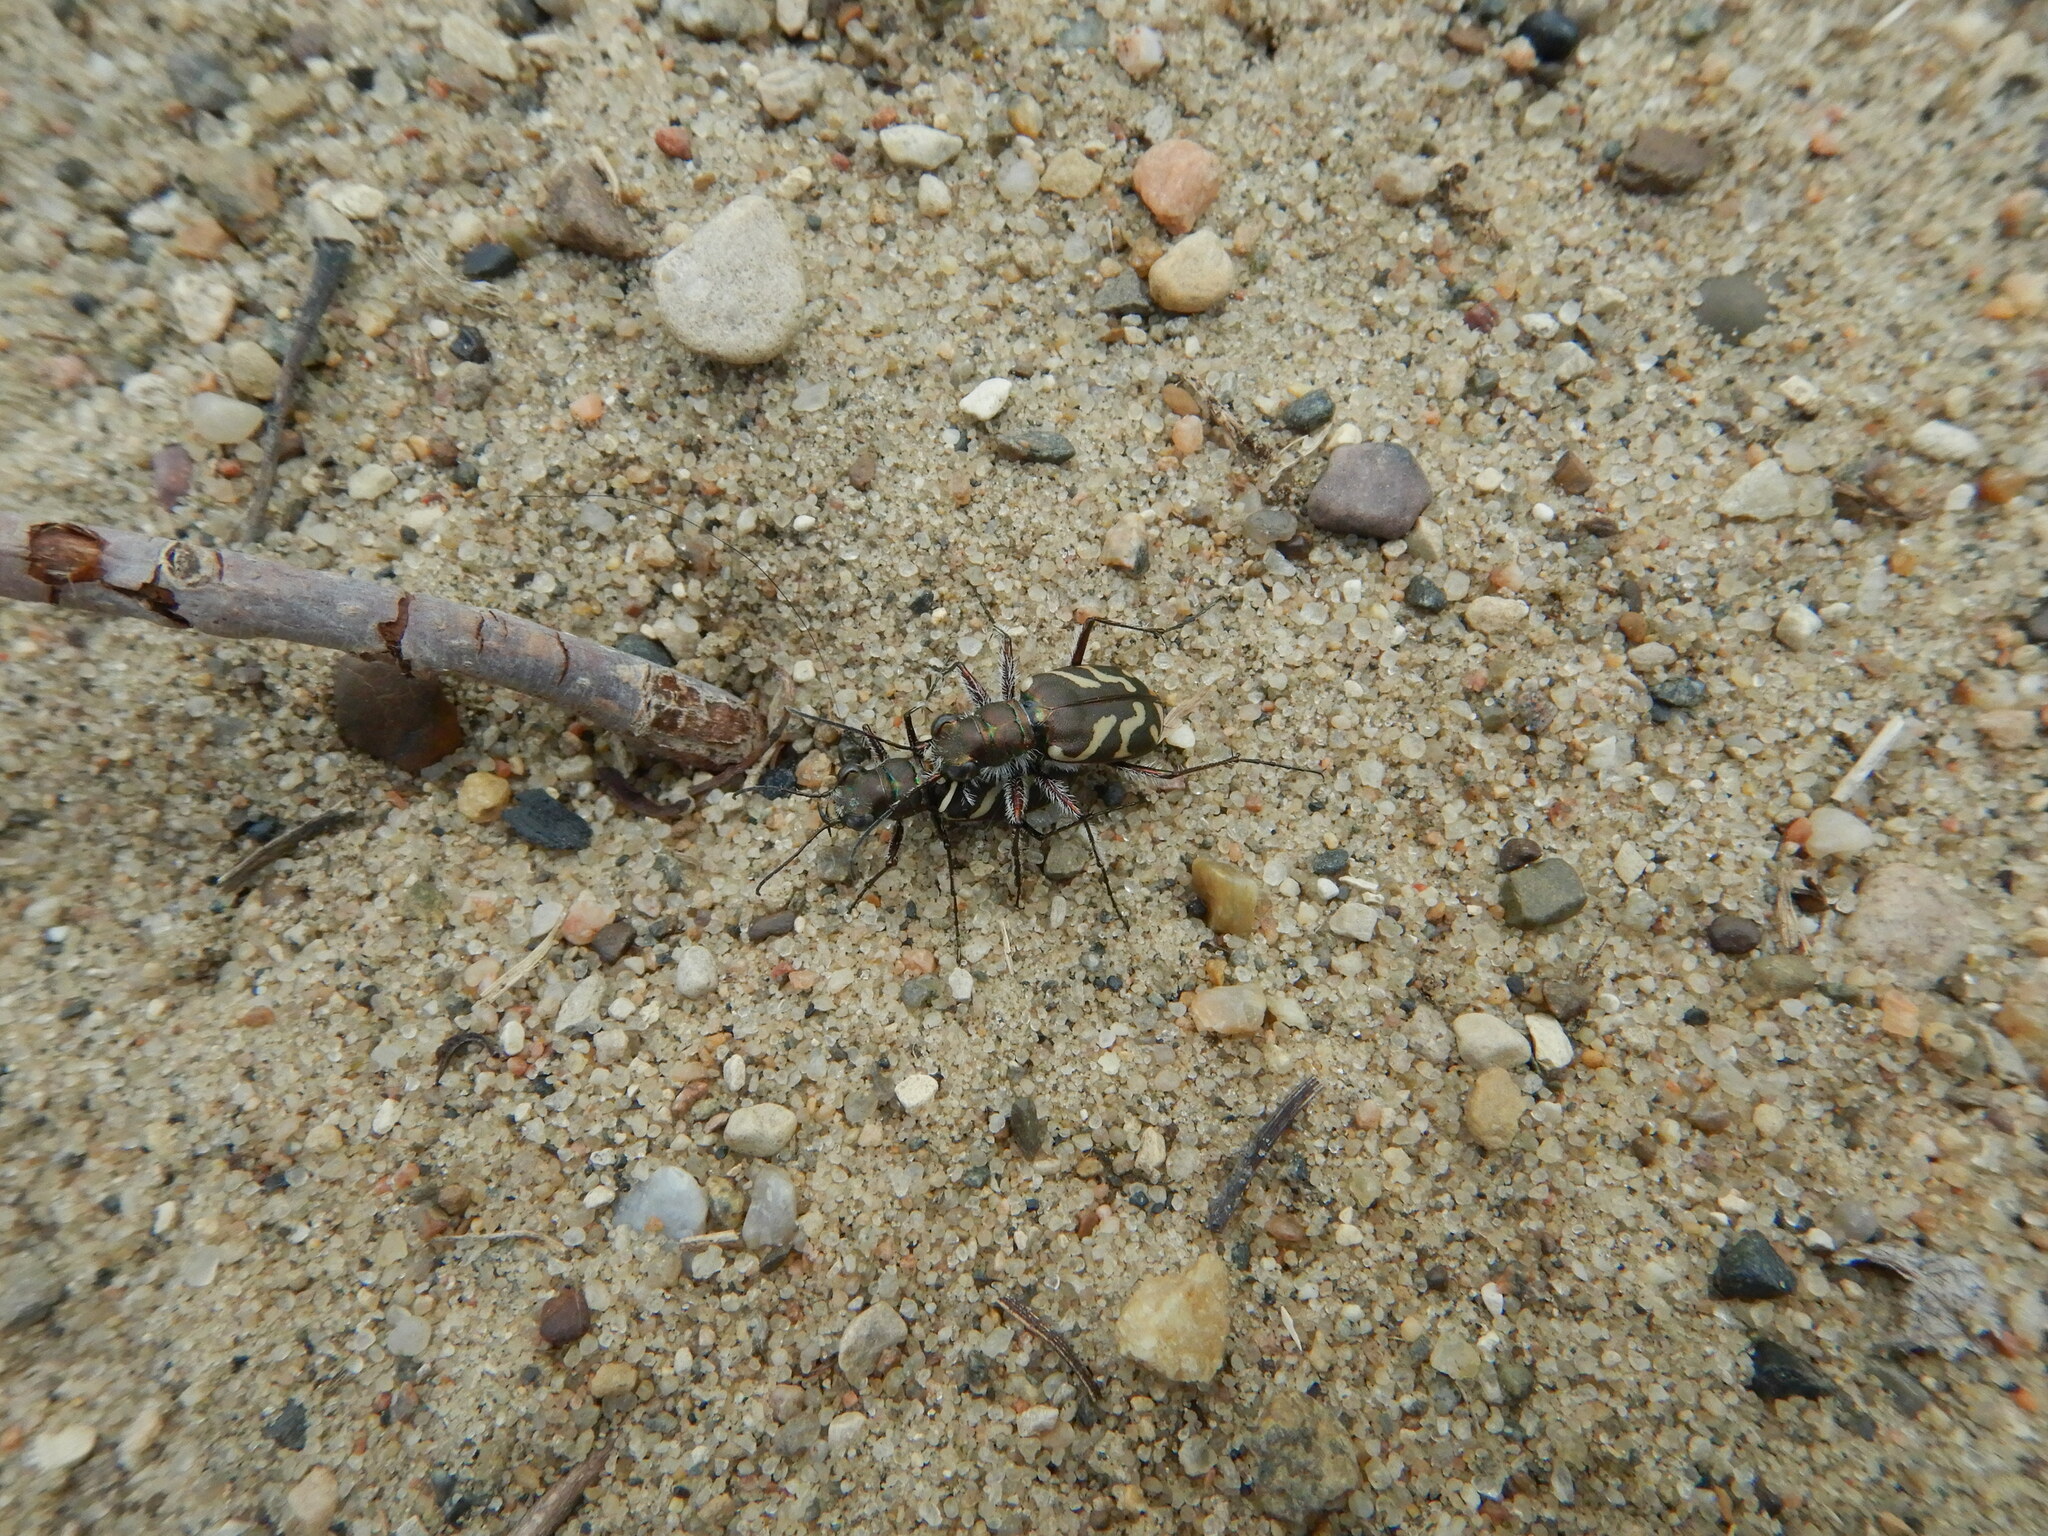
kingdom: Animalia
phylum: Arthropoda
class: Insecta
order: Coleoptera
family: Carabidae
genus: Cicindela
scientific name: Cicindela tranquebarica
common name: Oblique-lined tiger beetle
